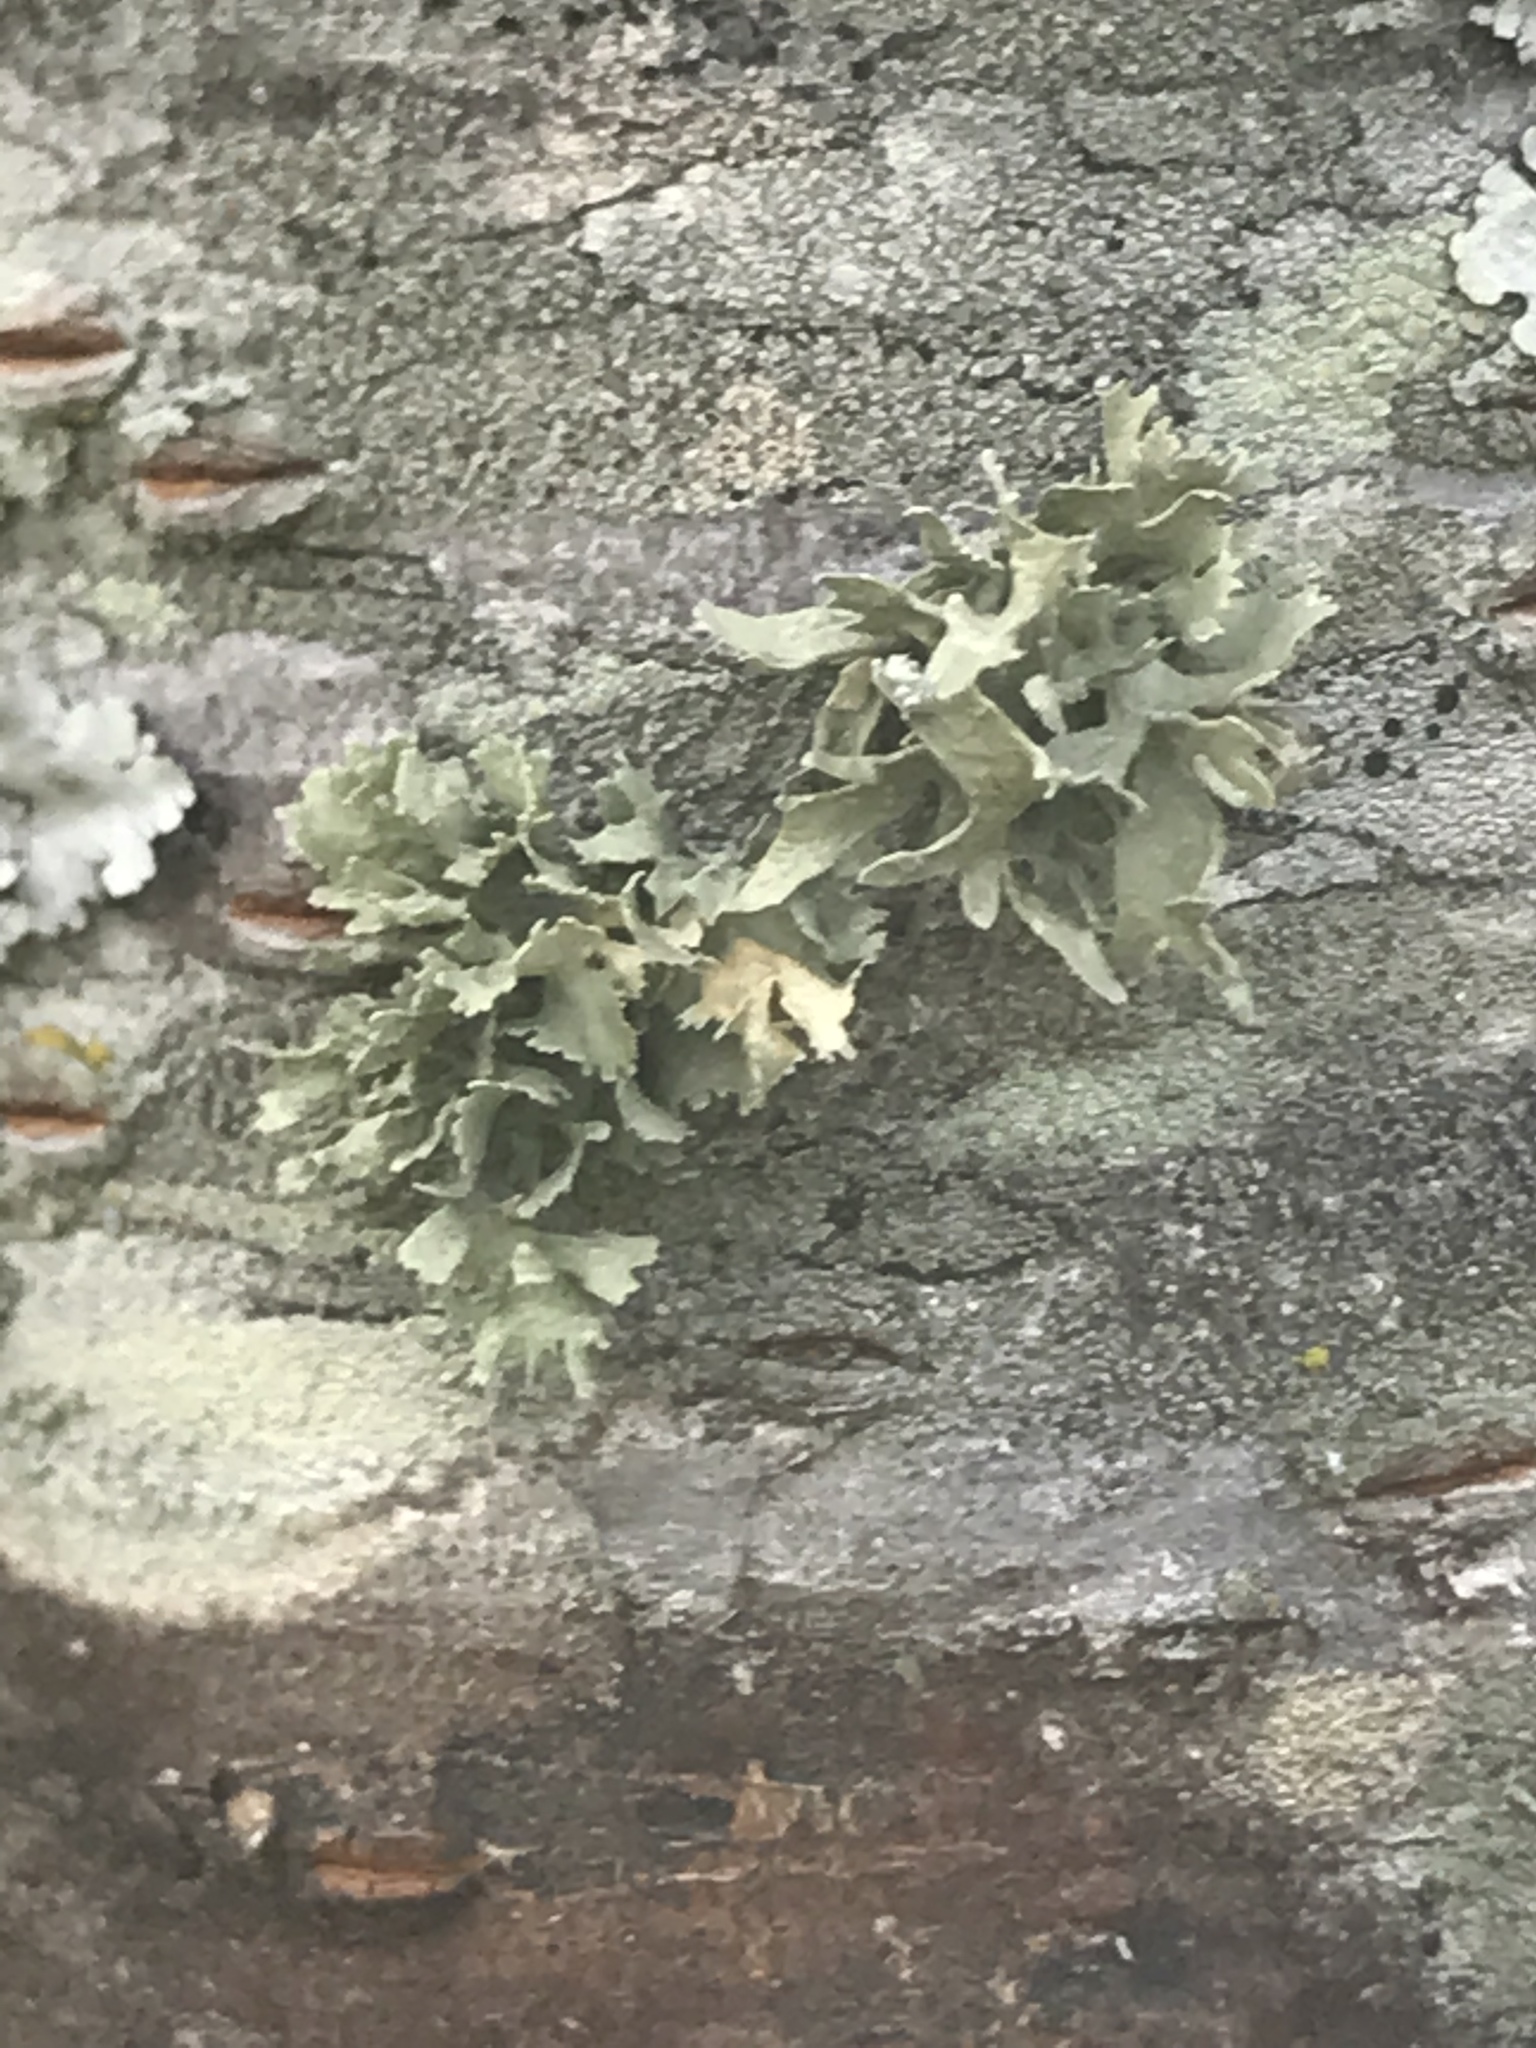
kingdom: Fungi
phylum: Ascomycota
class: Lecanoromycetes
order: Lecanorales
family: Ramalinaceae
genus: Ramalina
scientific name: Ramalina complanata
